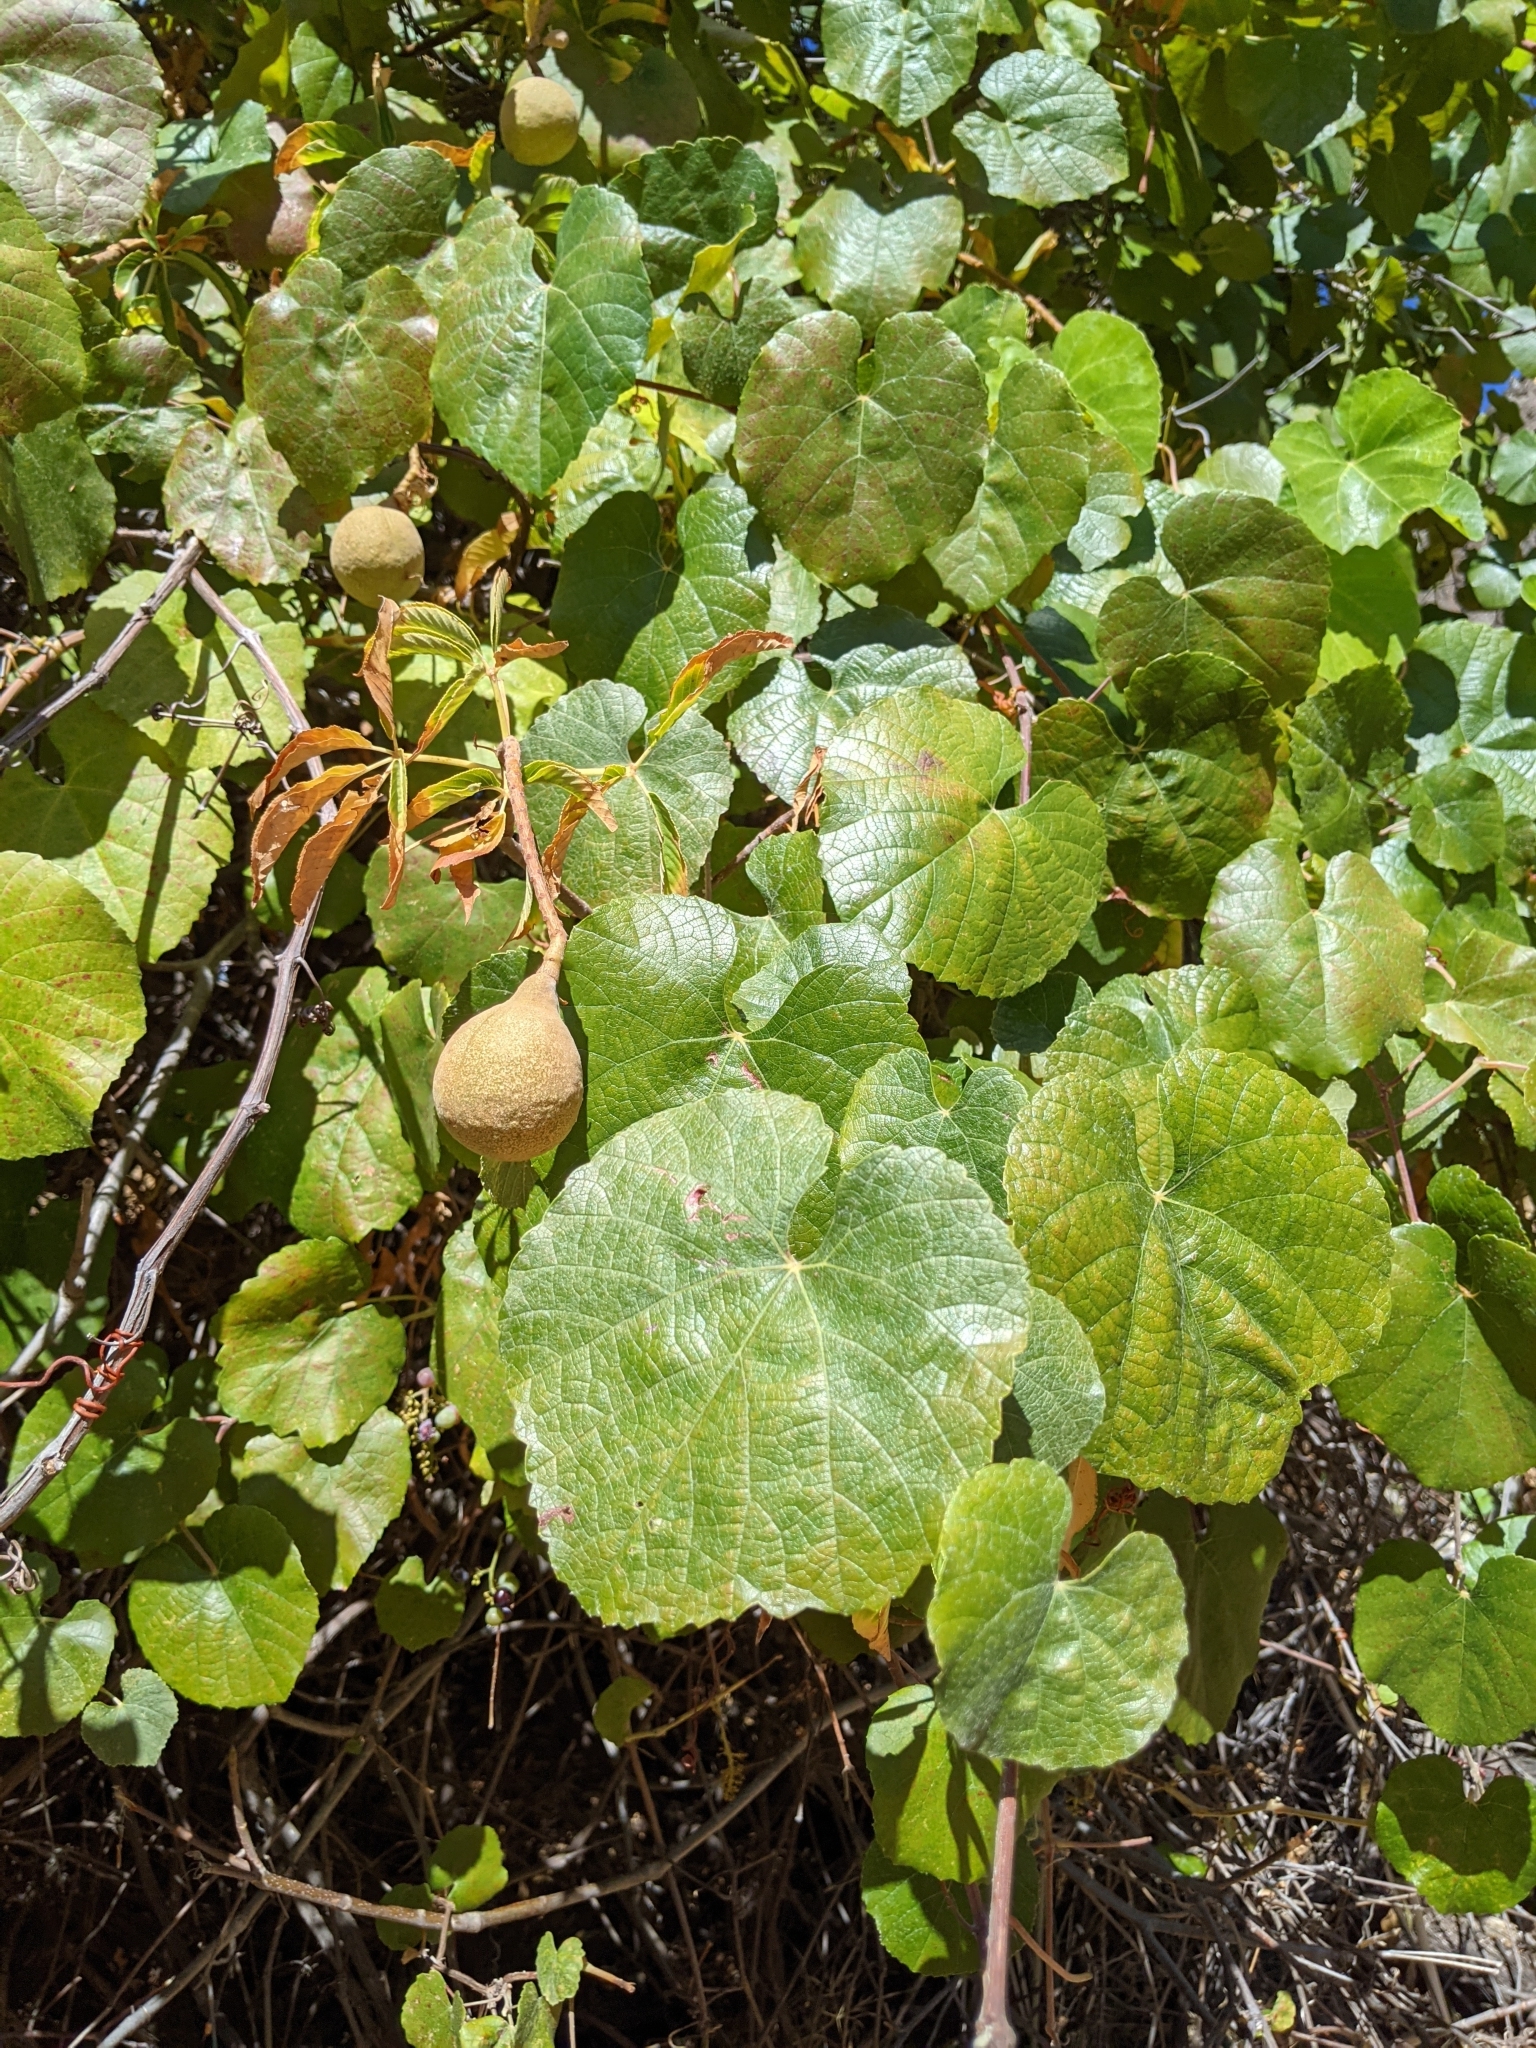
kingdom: Plantae
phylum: Tracheophyta
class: Magnoliopsida
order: Vitales
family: Vitaceae
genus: Vitis
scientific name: Vitis californica
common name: California wild grape
